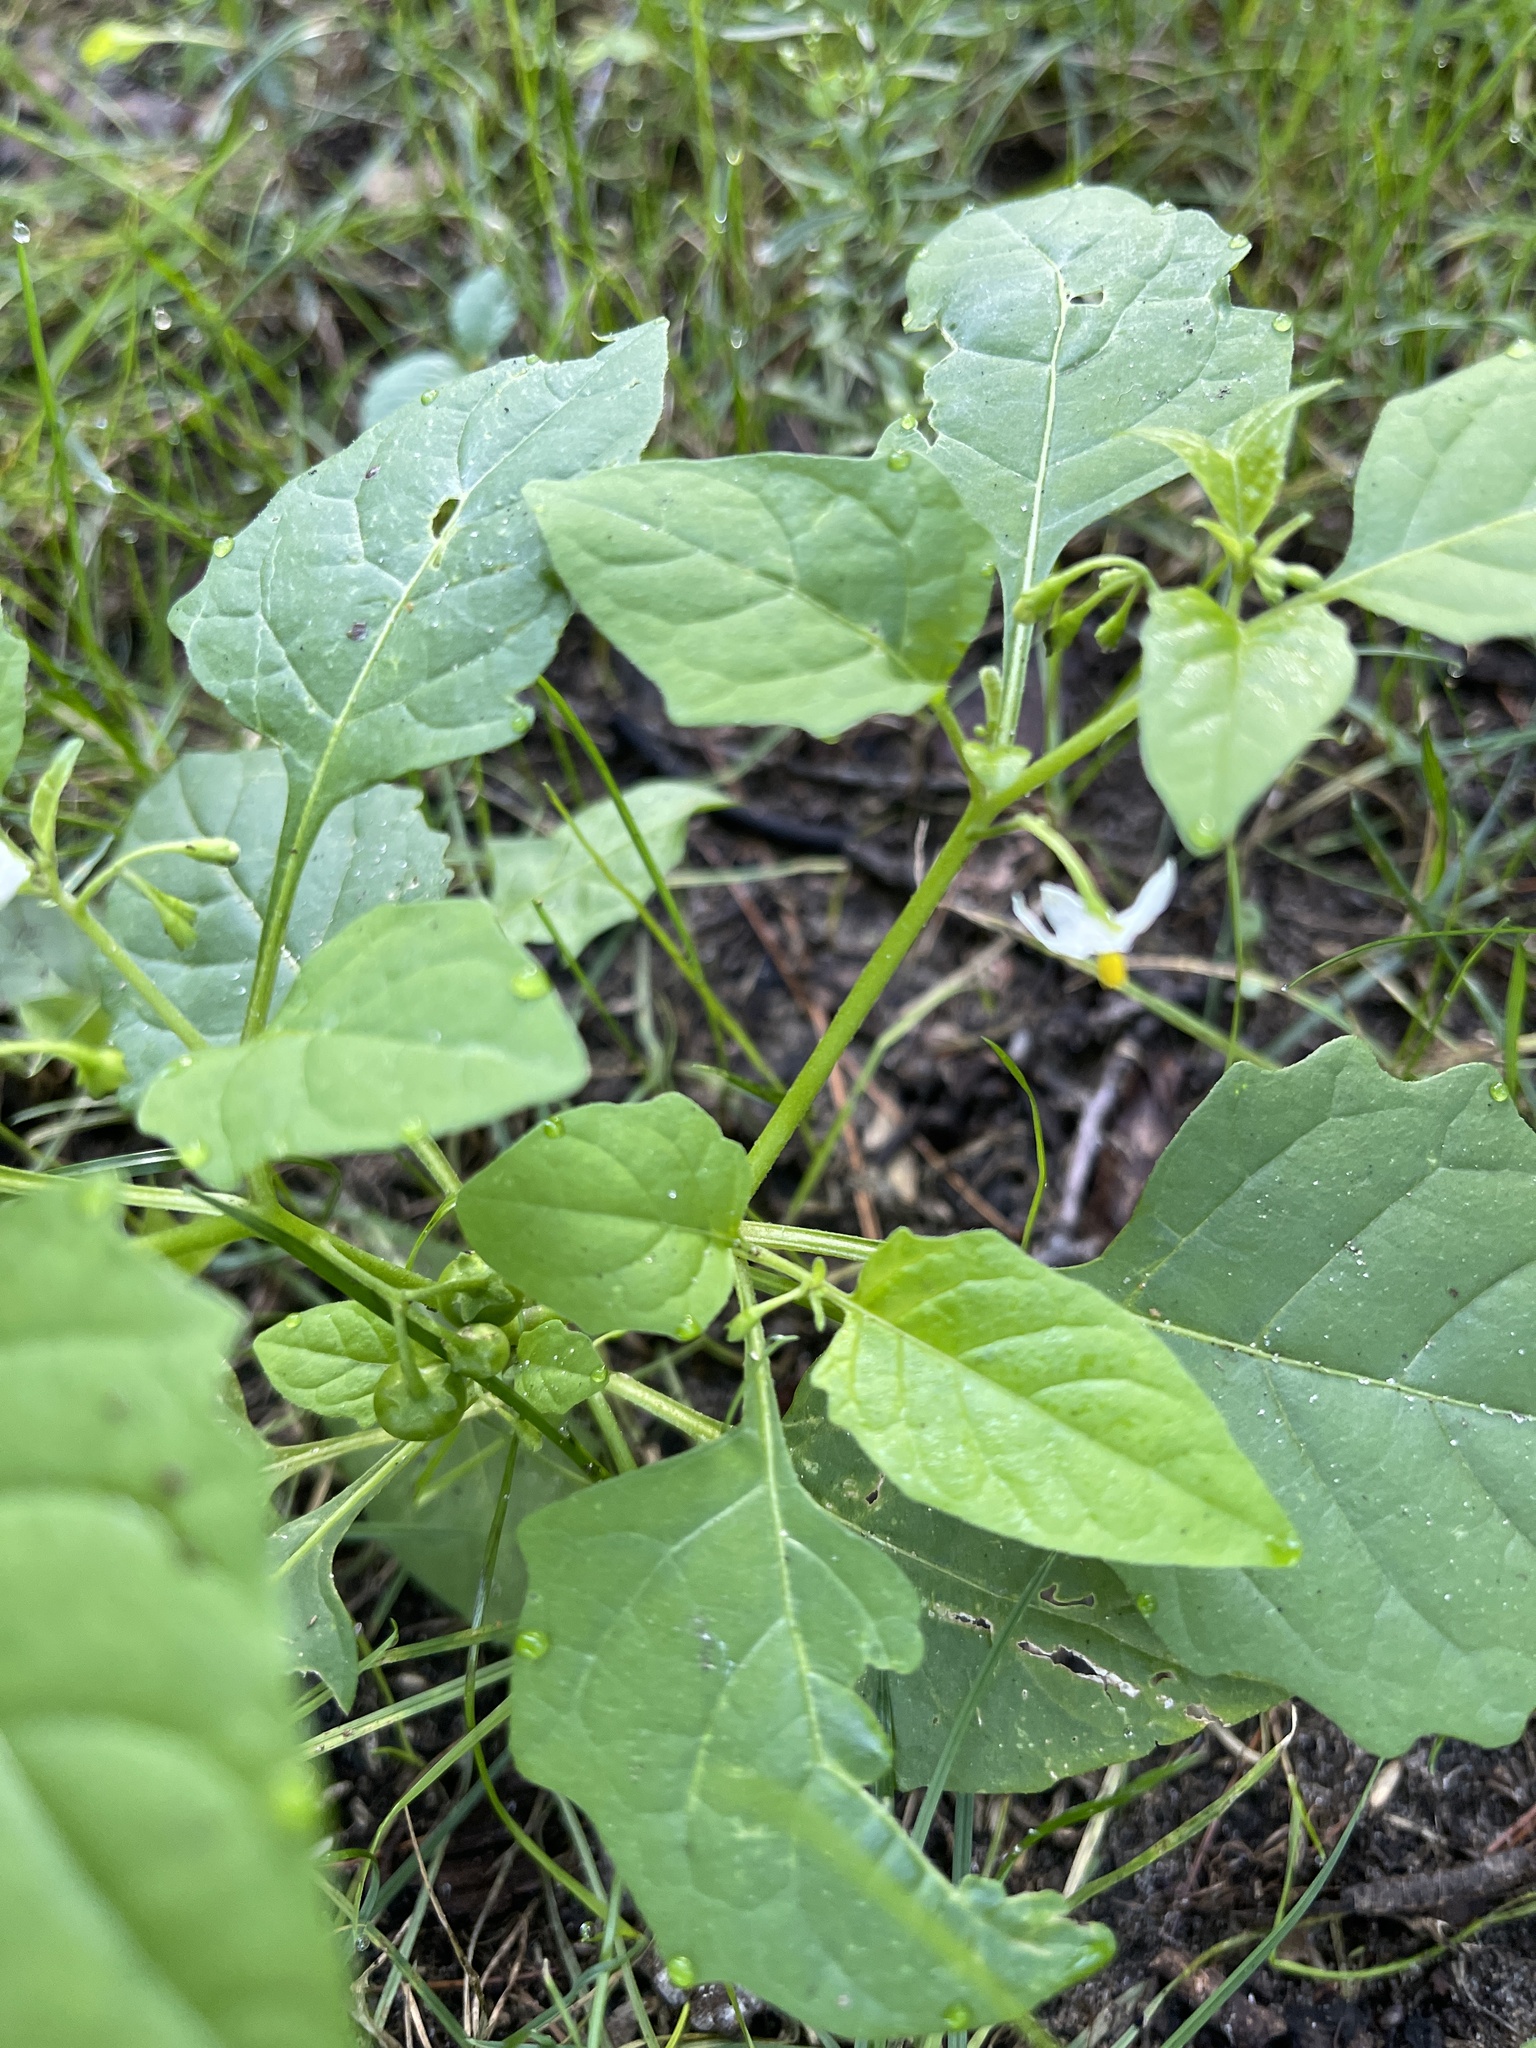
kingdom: Plantae
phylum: Tracheophyta
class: Magnoliopsida
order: Solanales
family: Solanaceae
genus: Solanum
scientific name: Solanum emulans
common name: Eastern black nightshade
